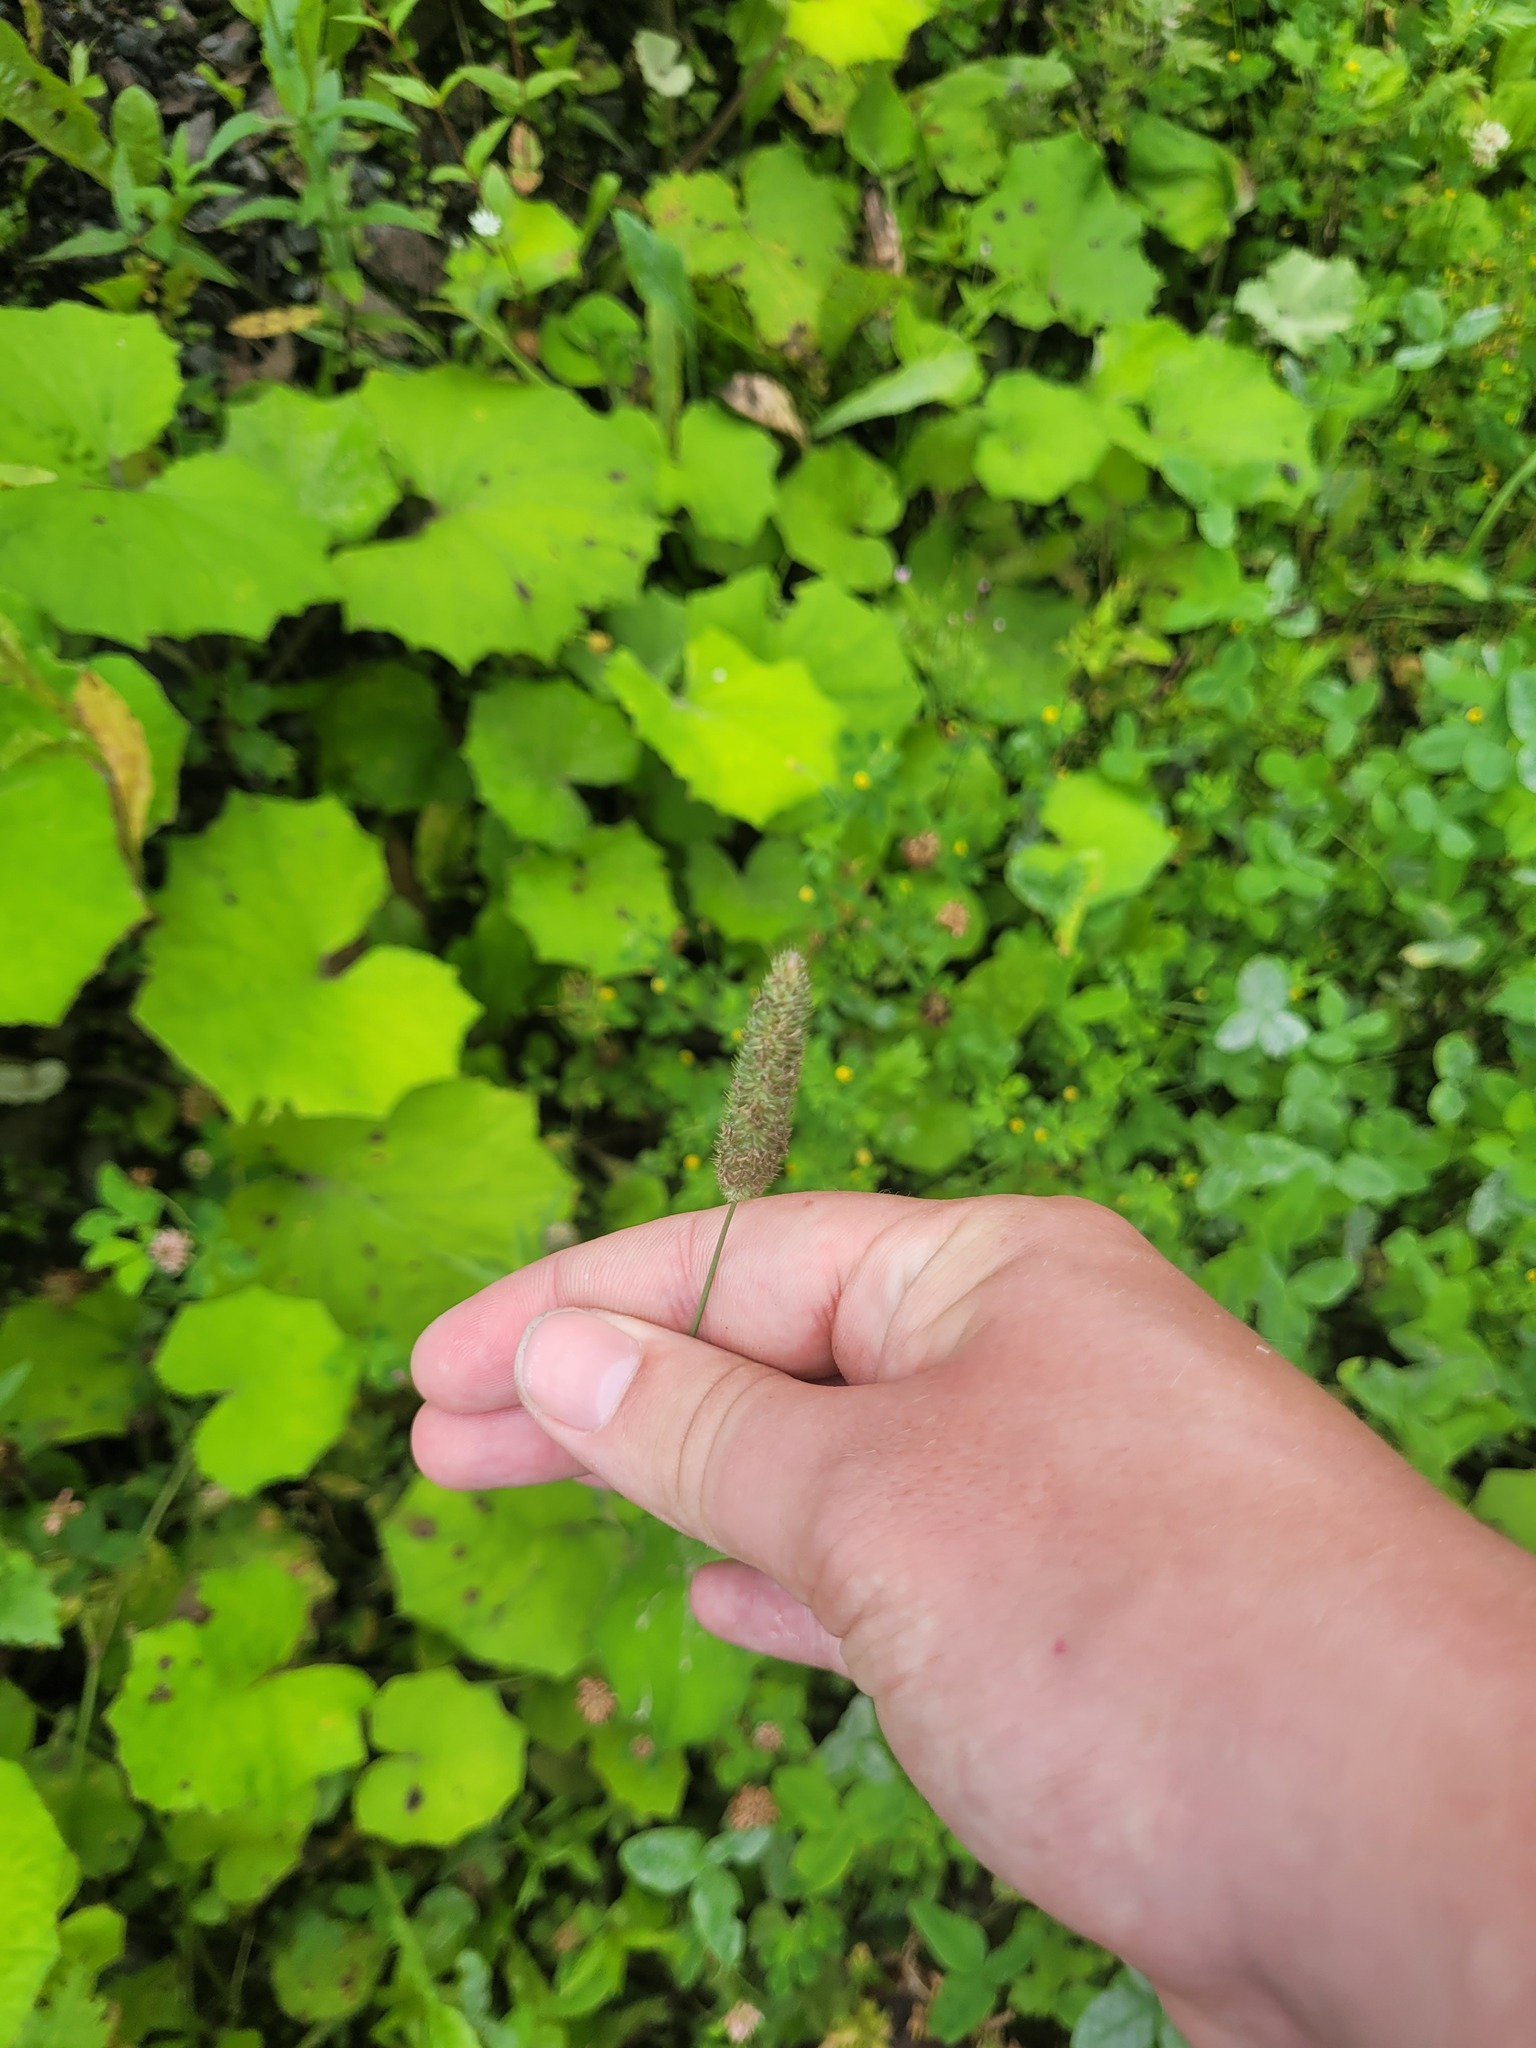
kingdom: Plantae
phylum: Tracheophyta
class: Liliopsida
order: Poales
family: Poaceae
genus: Phleum
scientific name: Phleum pratense
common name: Timothy grass
